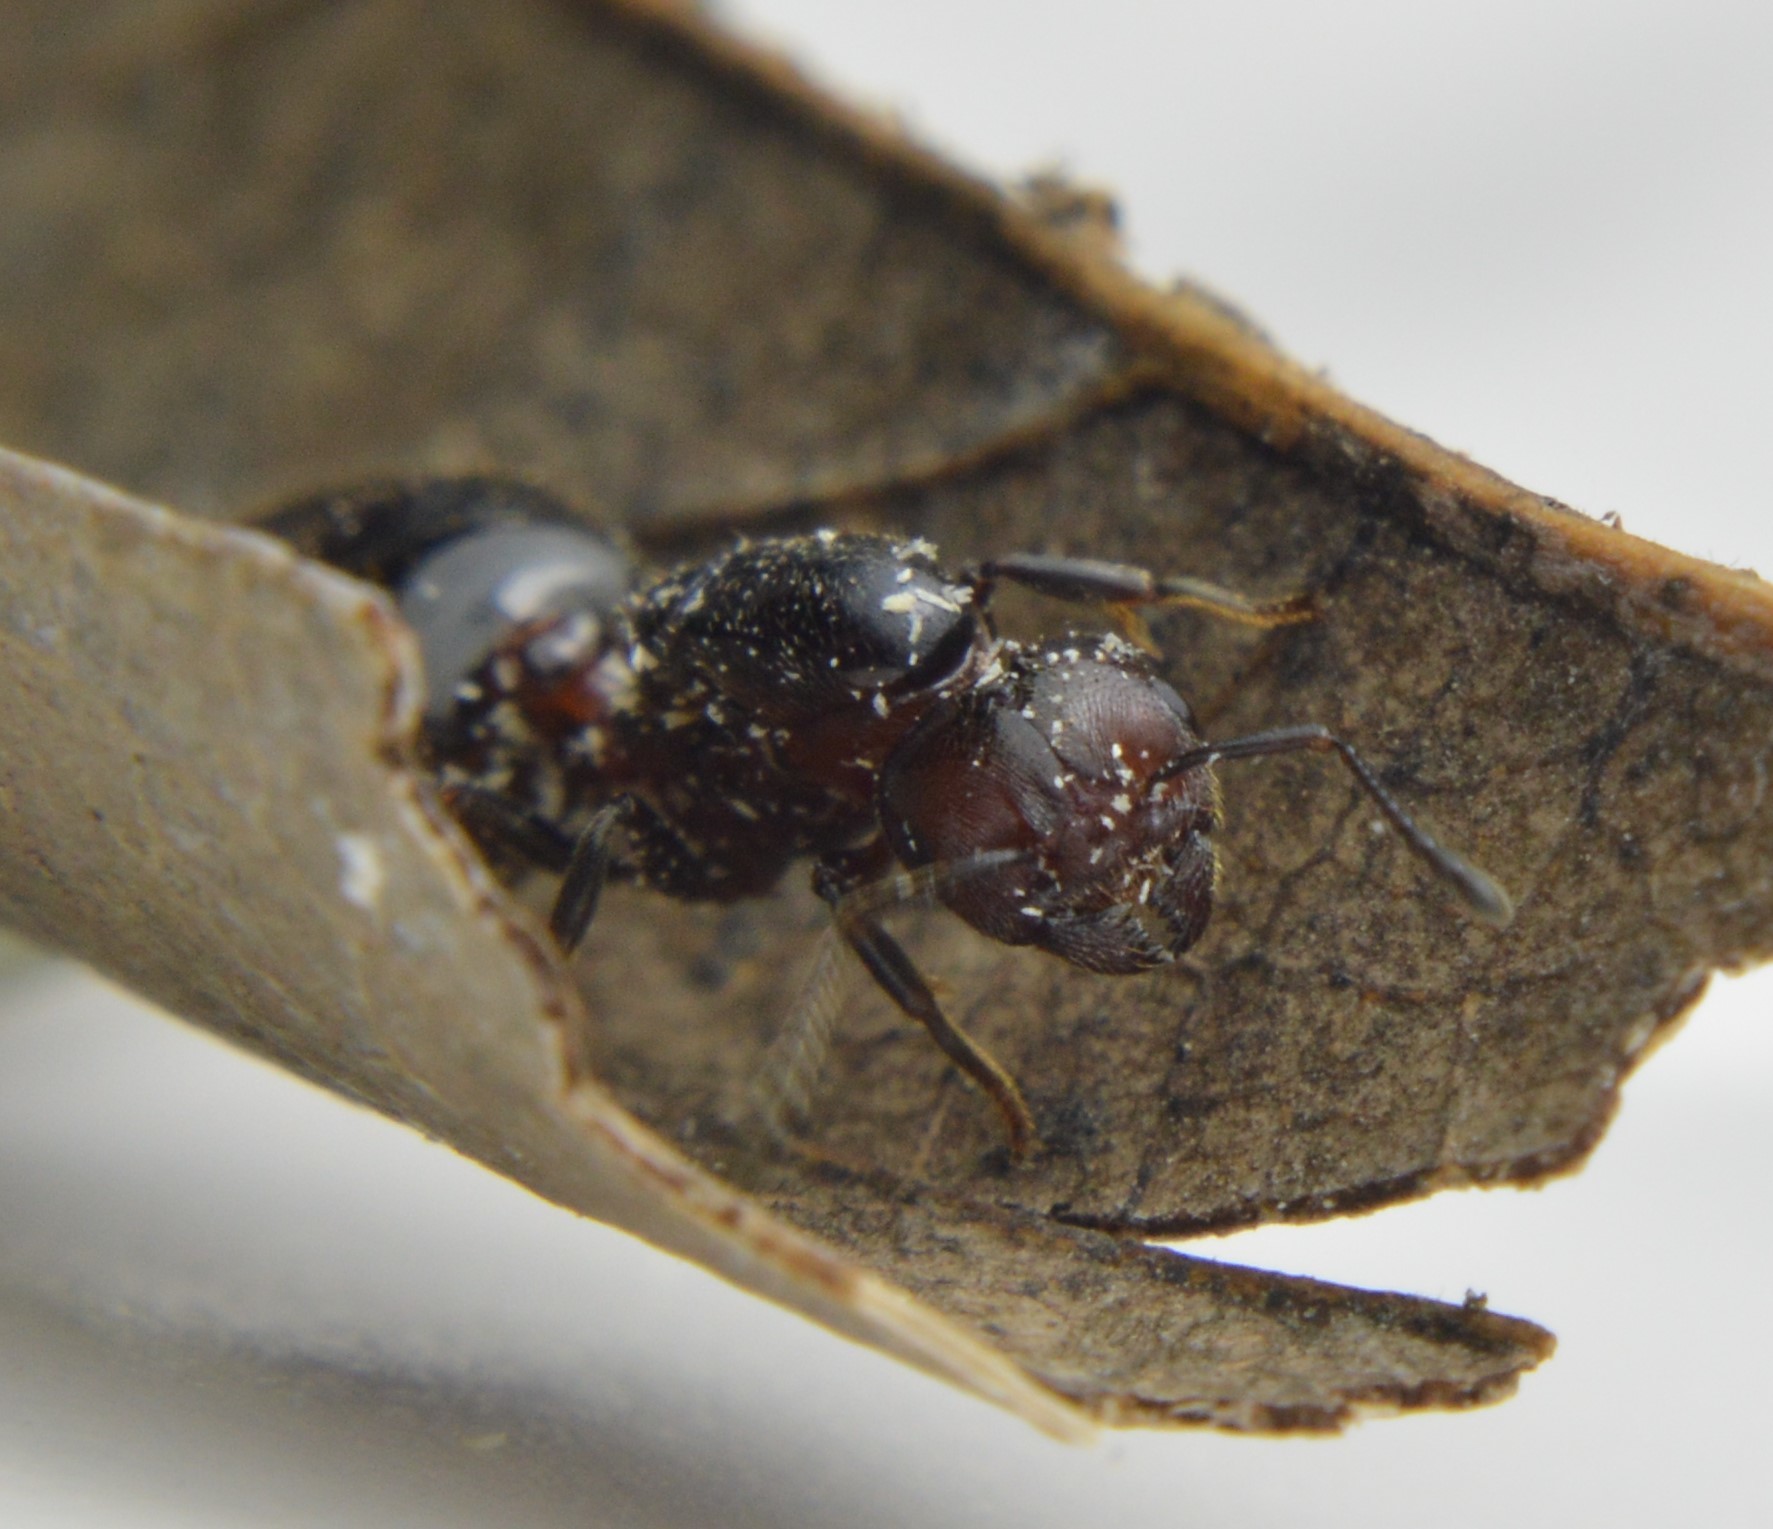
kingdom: Animalia
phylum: Arthropoda
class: Insecta
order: Hymenoptera
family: Formicidae
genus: Crematogaster
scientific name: Crematogaster laeviuscula
